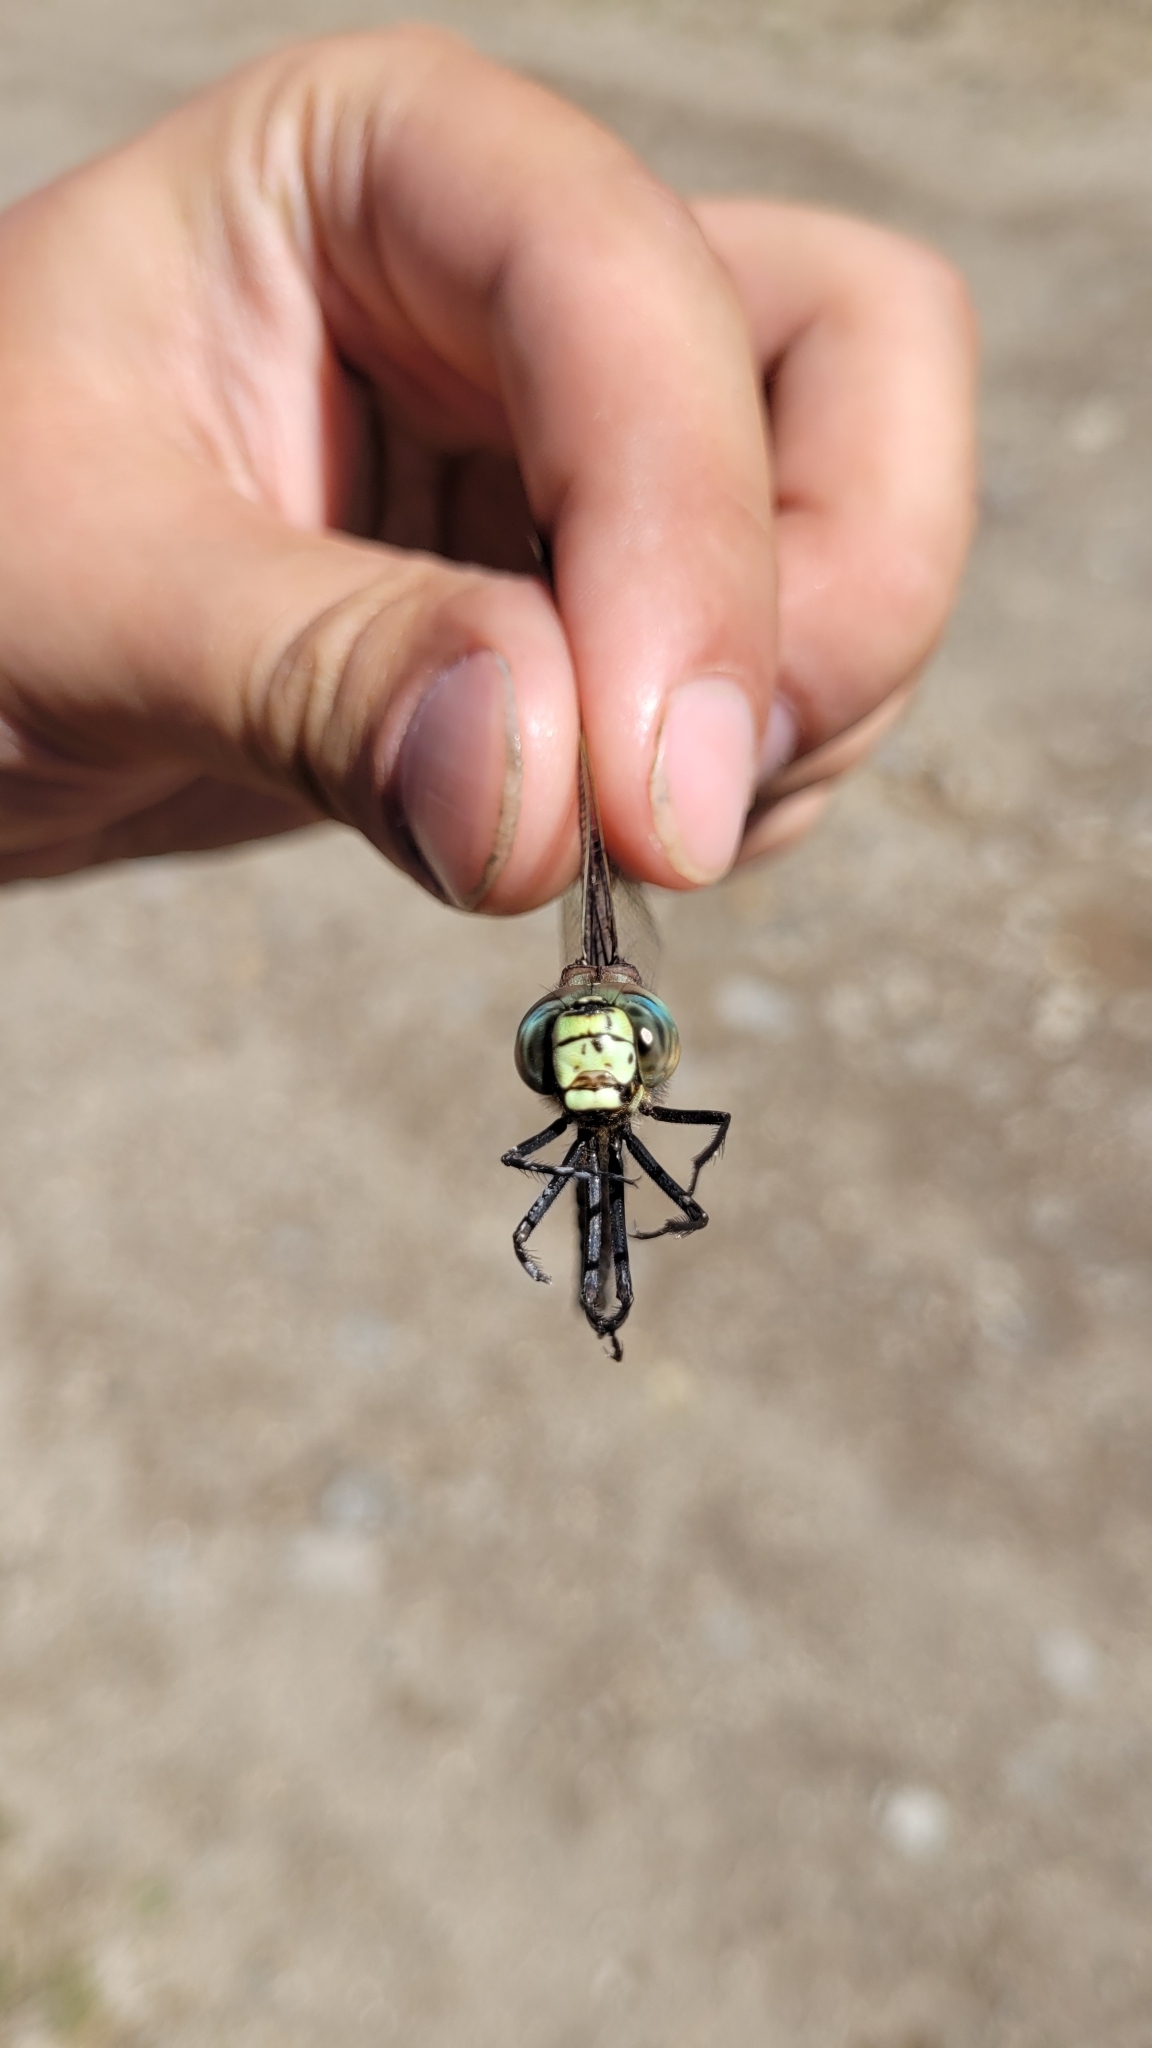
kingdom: Animalia
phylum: Arthropoda
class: Insecta
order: Odonata
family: Aeshnidae
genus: Aeshna
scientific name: Aeshna juncea
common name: Moorland hawker
